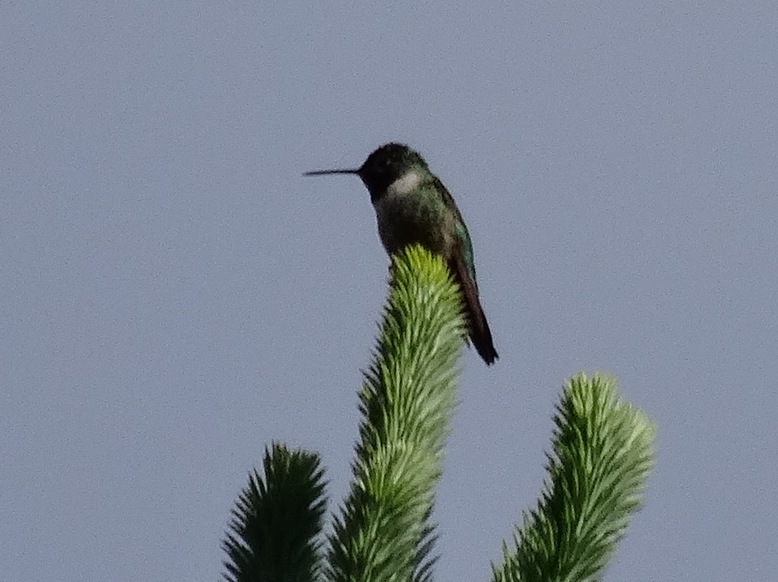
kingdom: Animalia
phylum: Chordata
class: Aves
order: Apodiformes
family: Trochilidae
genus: Selasphorus
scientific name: Selasphorus platycercus
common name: Broad-tailed hummingbird
